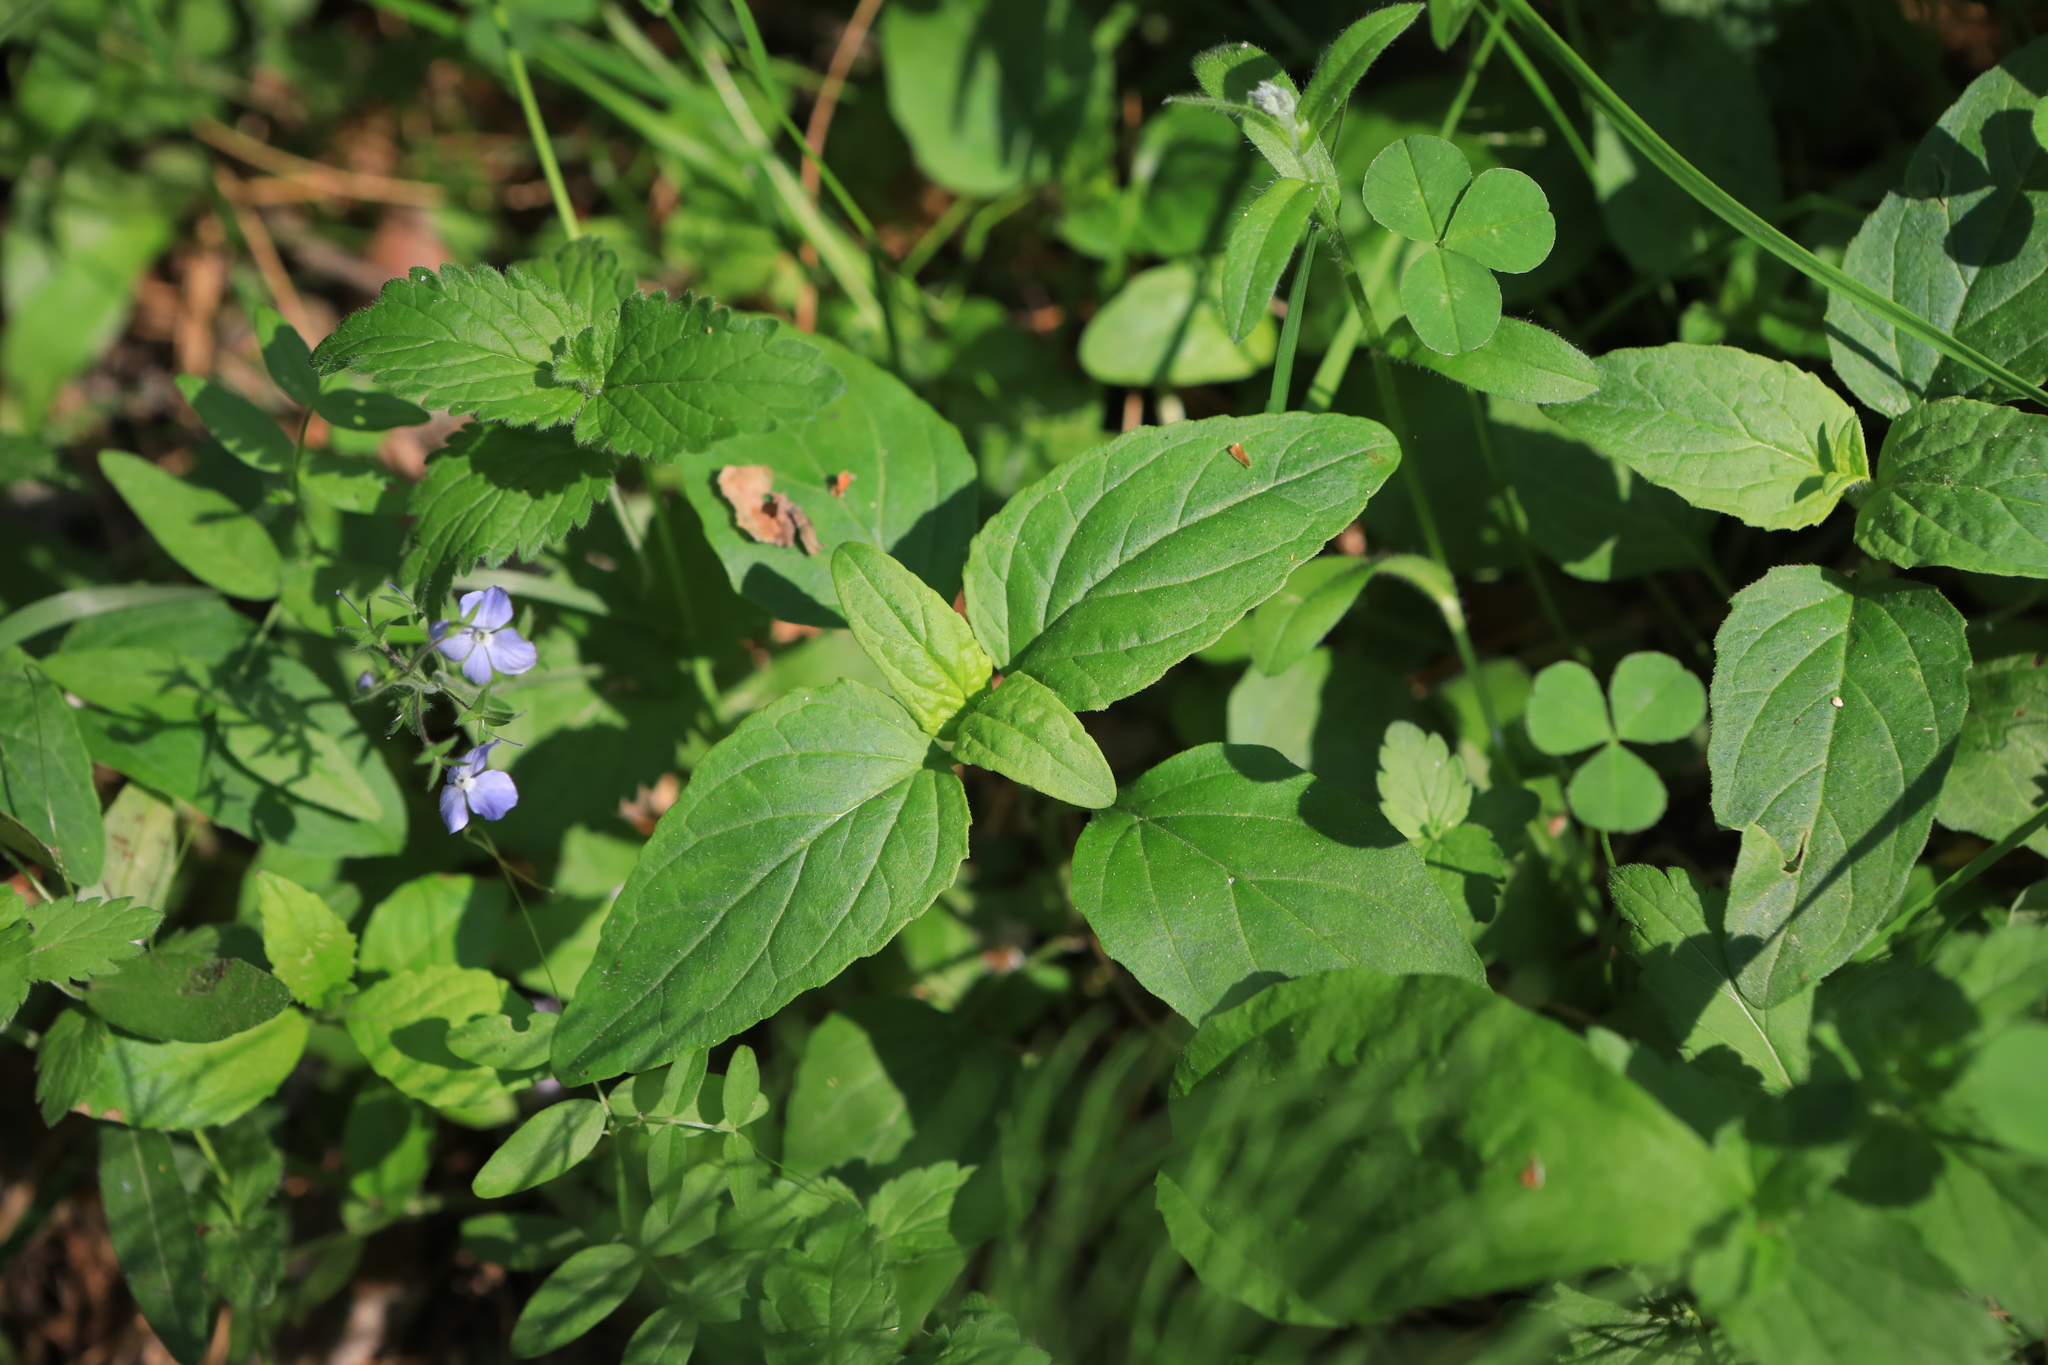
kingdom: Plantae
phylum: Tracheophyta
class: Magnoliopsida
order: Lamiales
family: Lamiaceae
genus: Prunella
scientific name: Prunella vulgaris
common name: Heal-all
